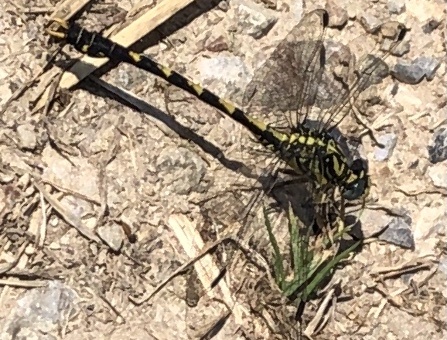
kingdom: Animalia
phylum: Arthropoda
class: Insecta
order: Odonata
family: Gomphidae
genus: Onychogomphus
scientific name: Onychogomphus uncatus
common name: Large pincertail
